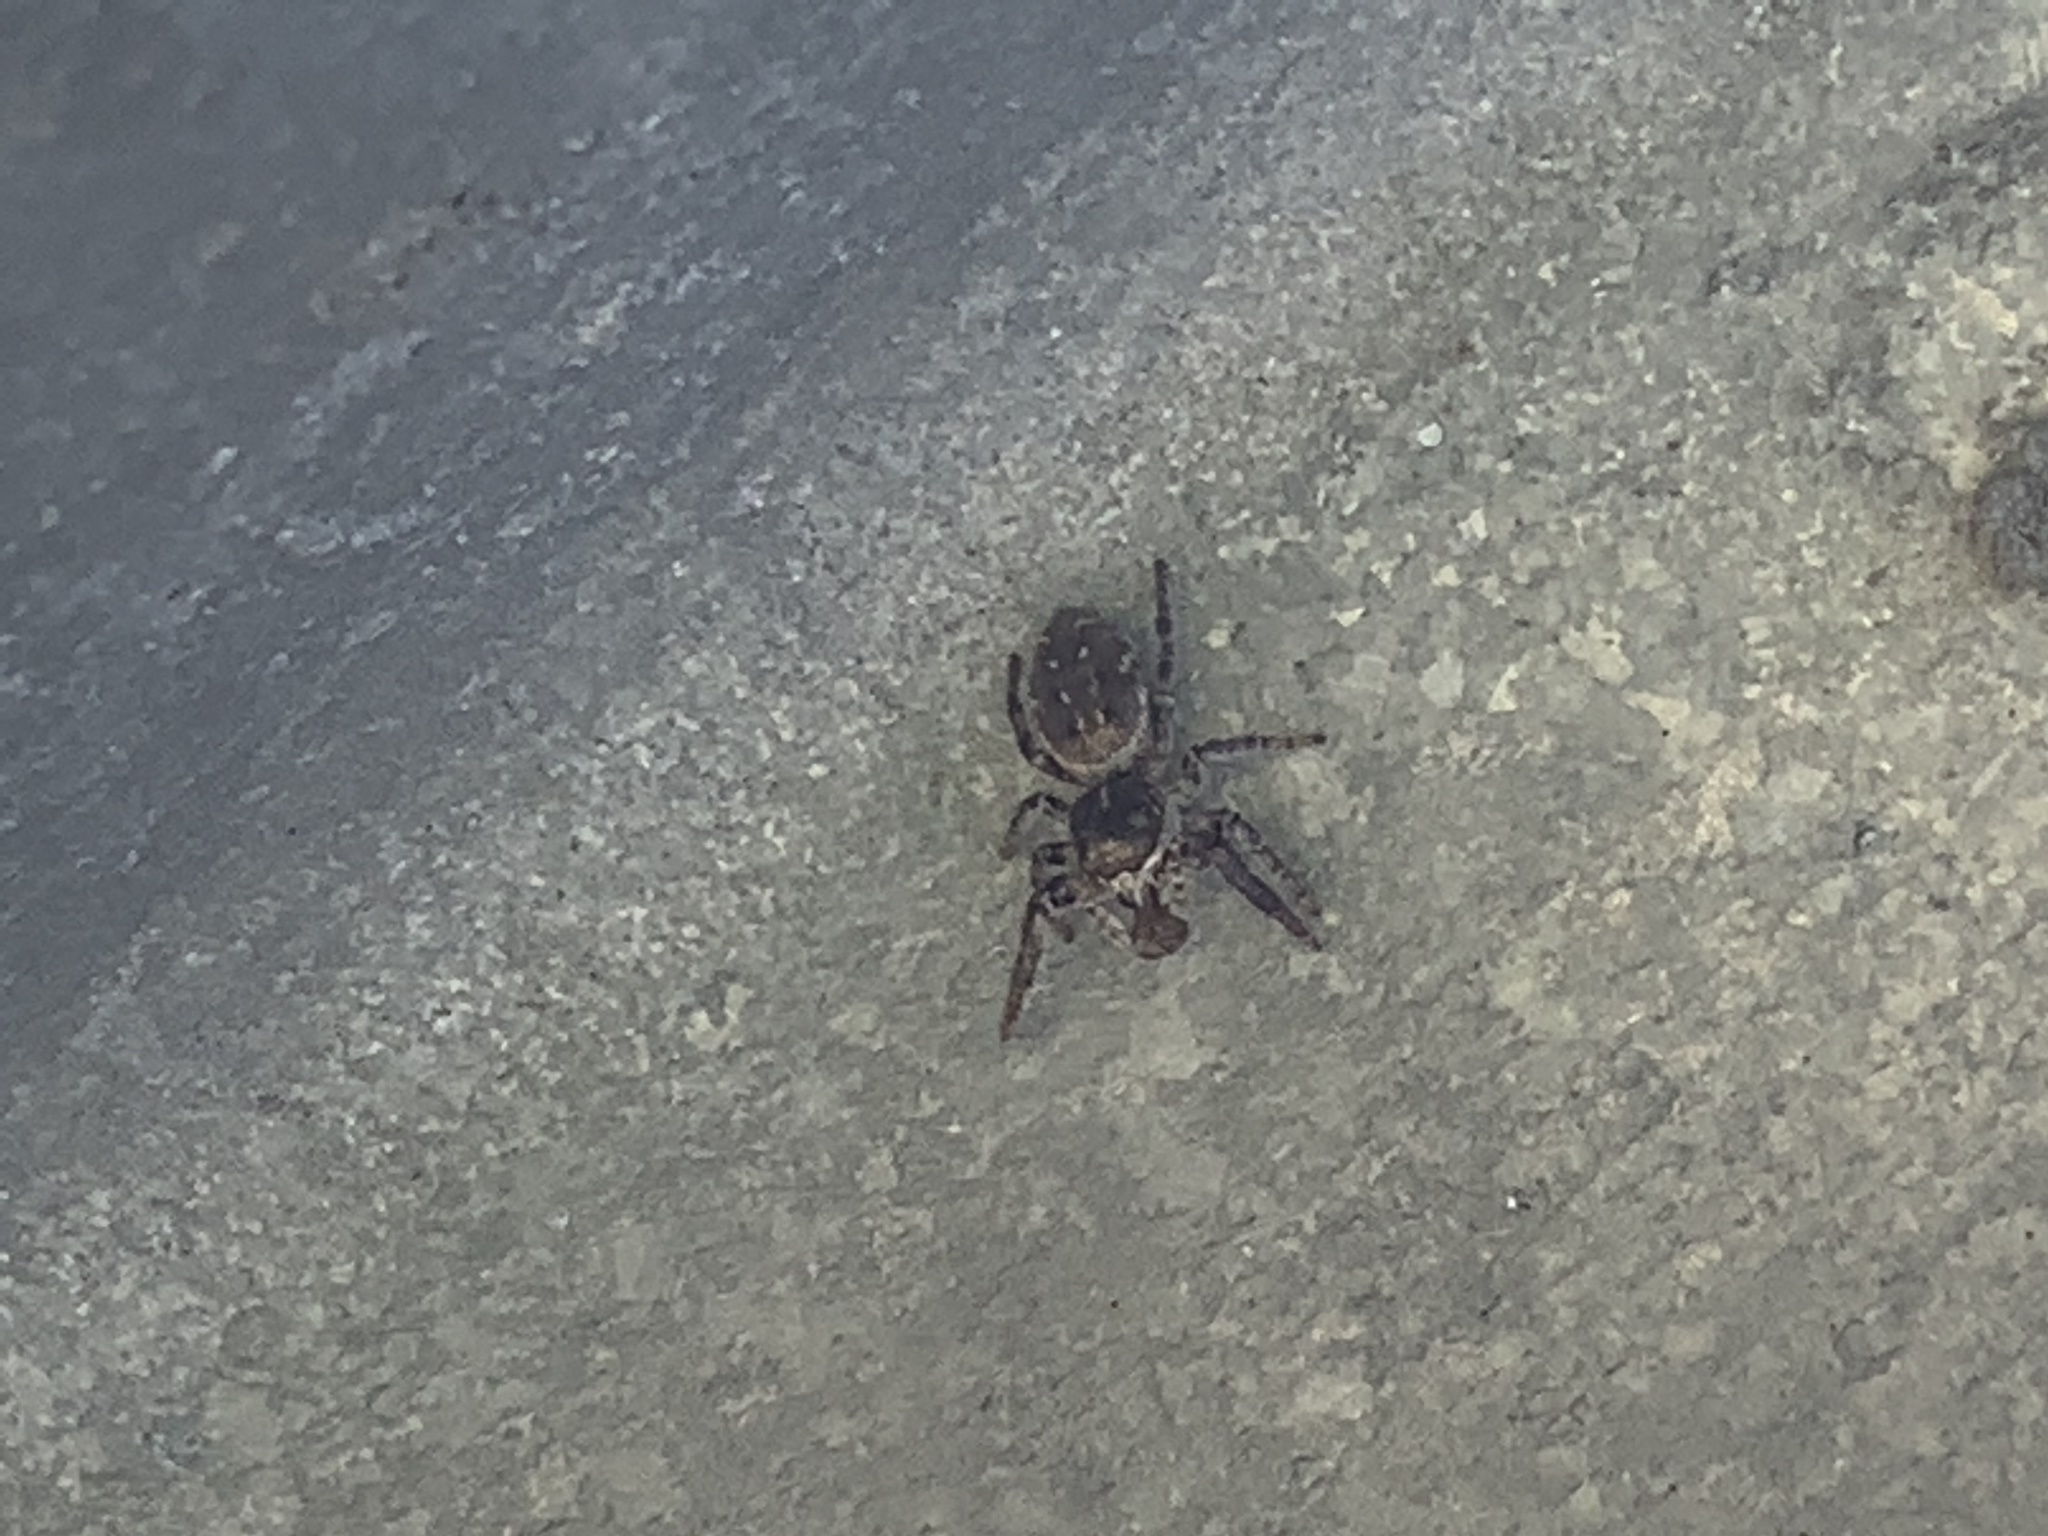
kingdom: Animalia
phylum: Arthropoda
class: Arachnida
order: Araneae
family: Salticidae
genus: Eris
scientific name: Eris militaris
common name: Bronze jumper
